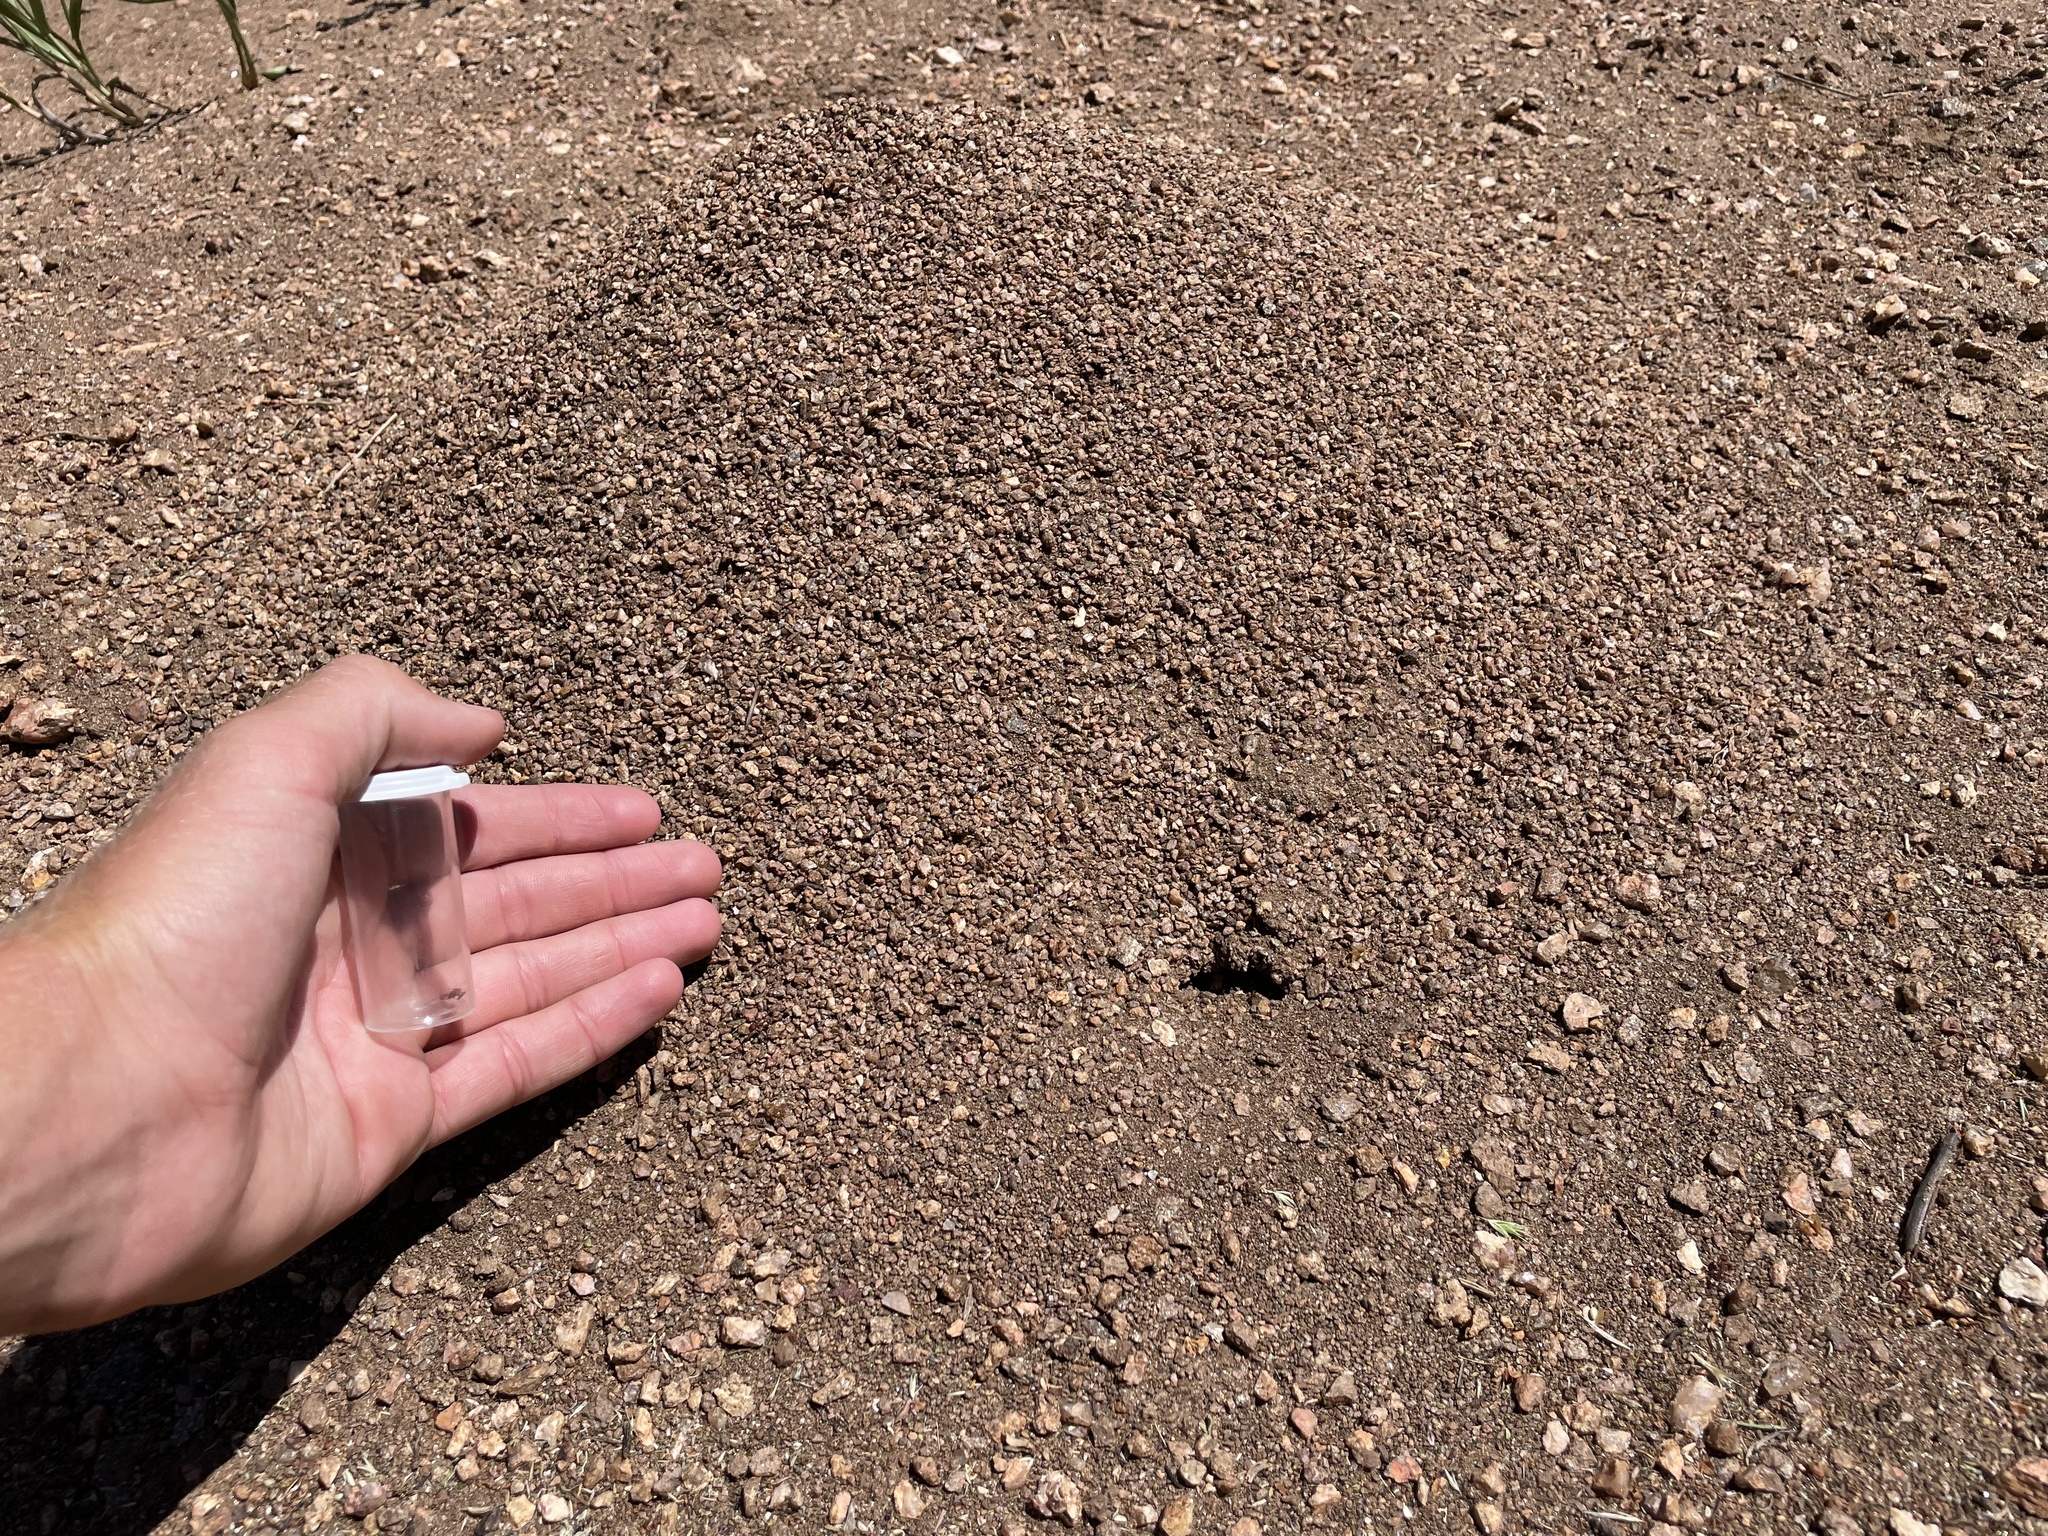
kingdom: Animalia
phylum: Arthropoda
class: Insecta
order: Hymenoptera
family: Formicidae
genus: Pogonomyrmex
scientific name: Pogonomyrmex occidentalis
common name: Western harvester ant
